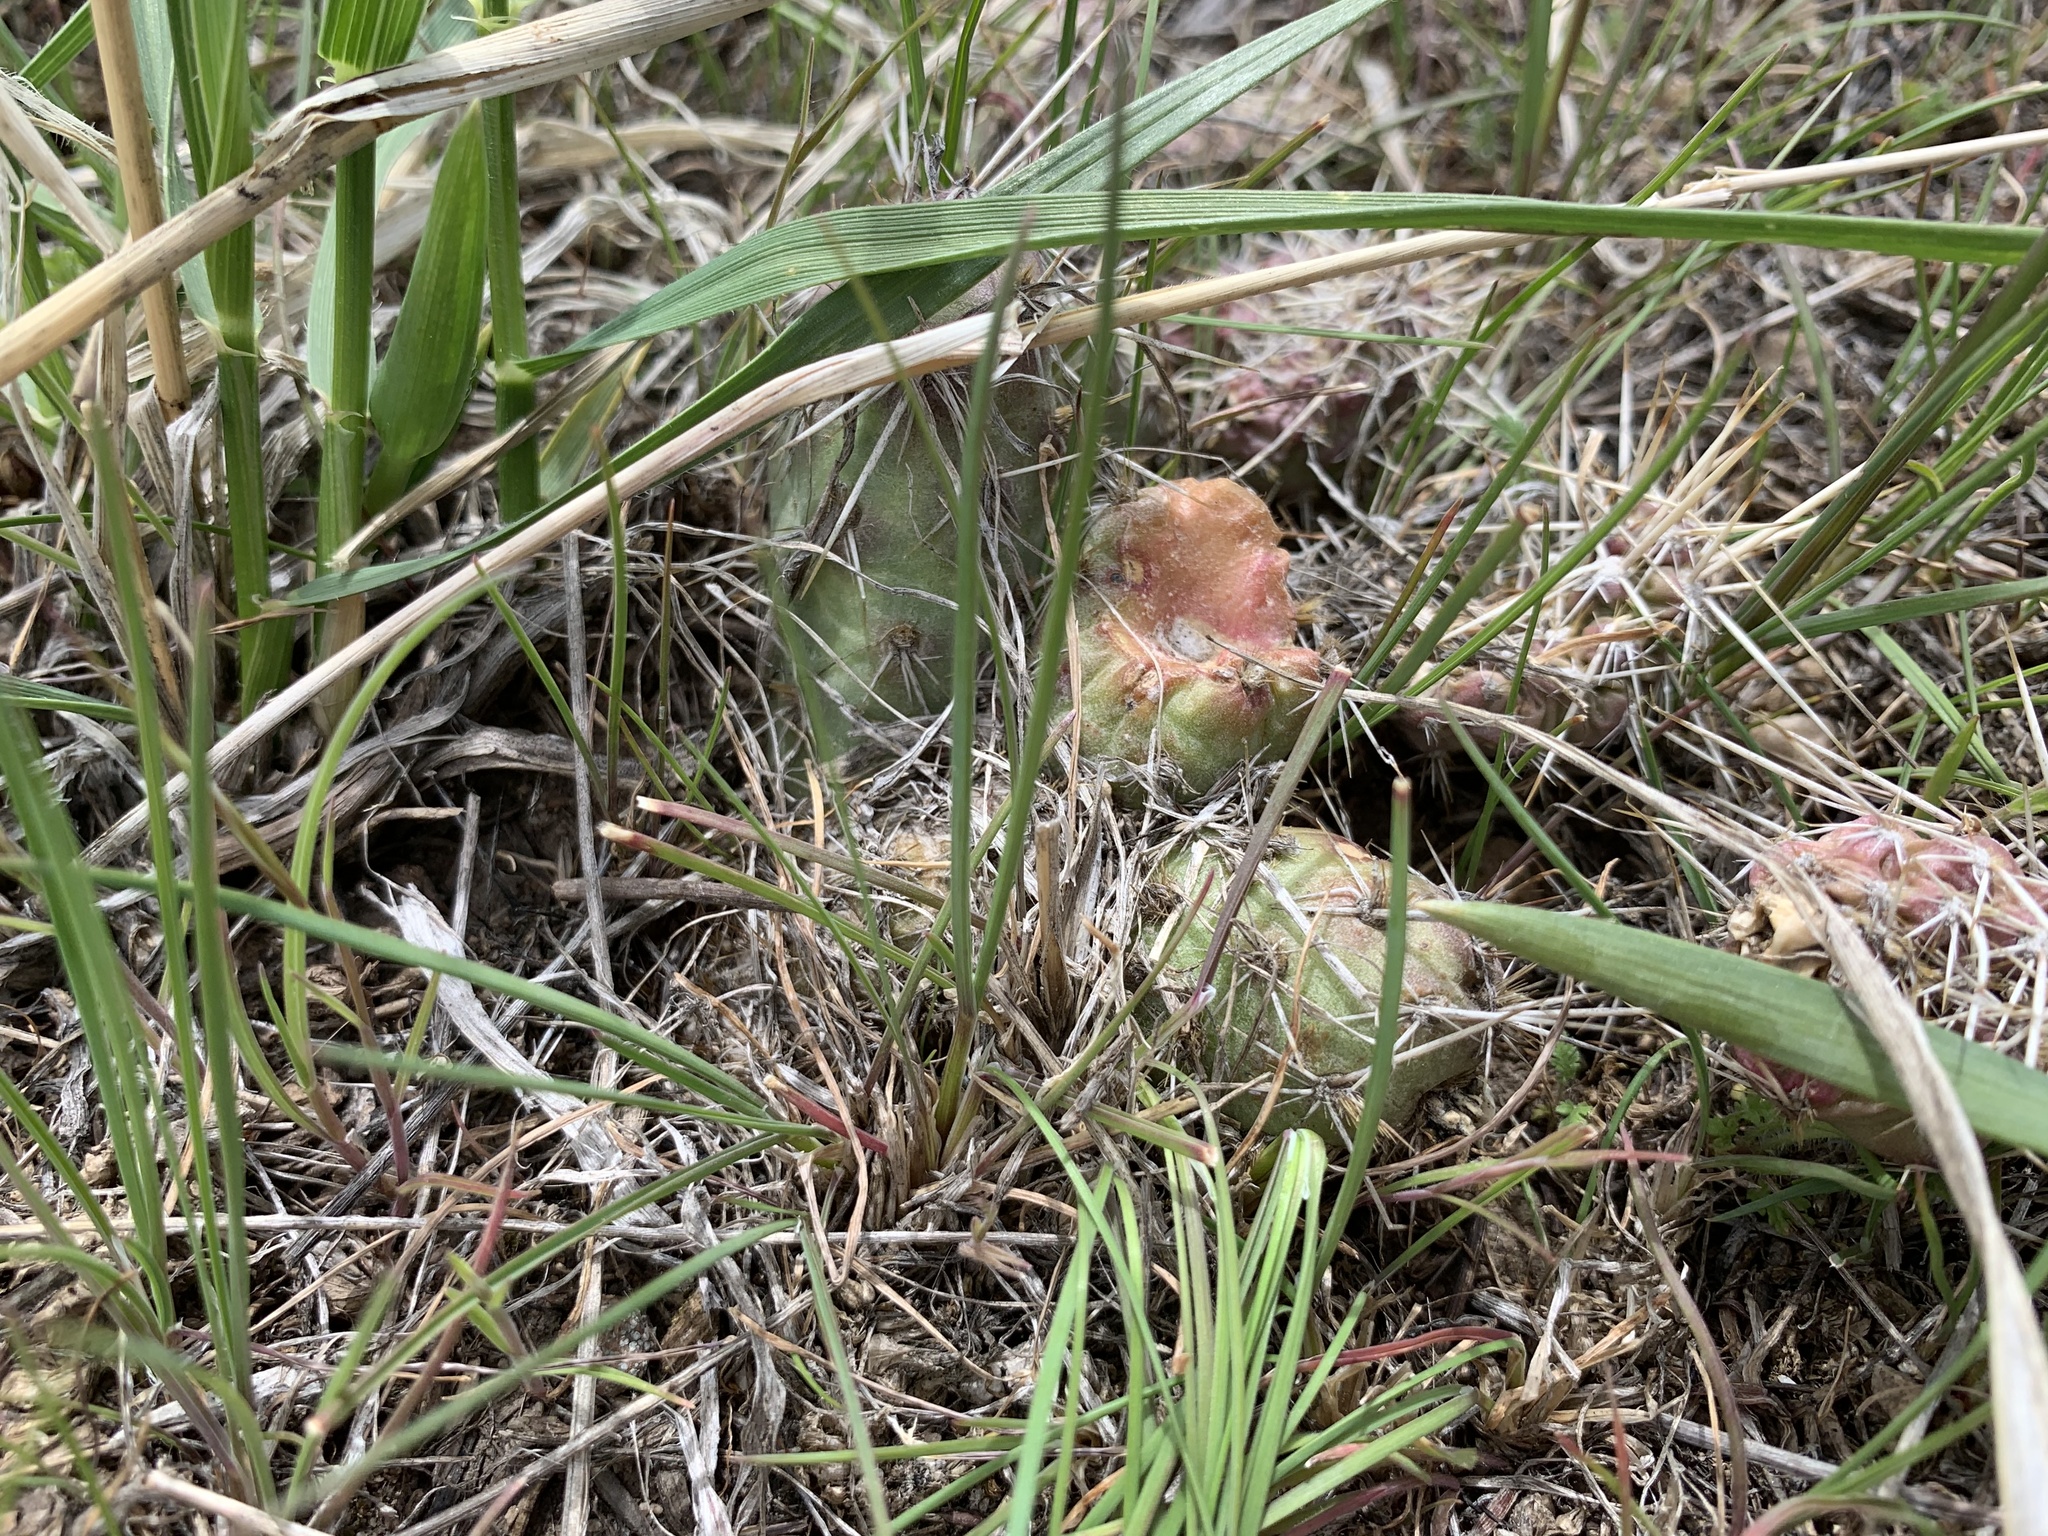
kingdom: Plantae
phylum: Tracheophyta
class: Magnoliopsida
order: Caryophyllales
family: Cactaceae
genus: Opuntia
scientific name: Opuntia fragilis
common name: Brittle cactus
